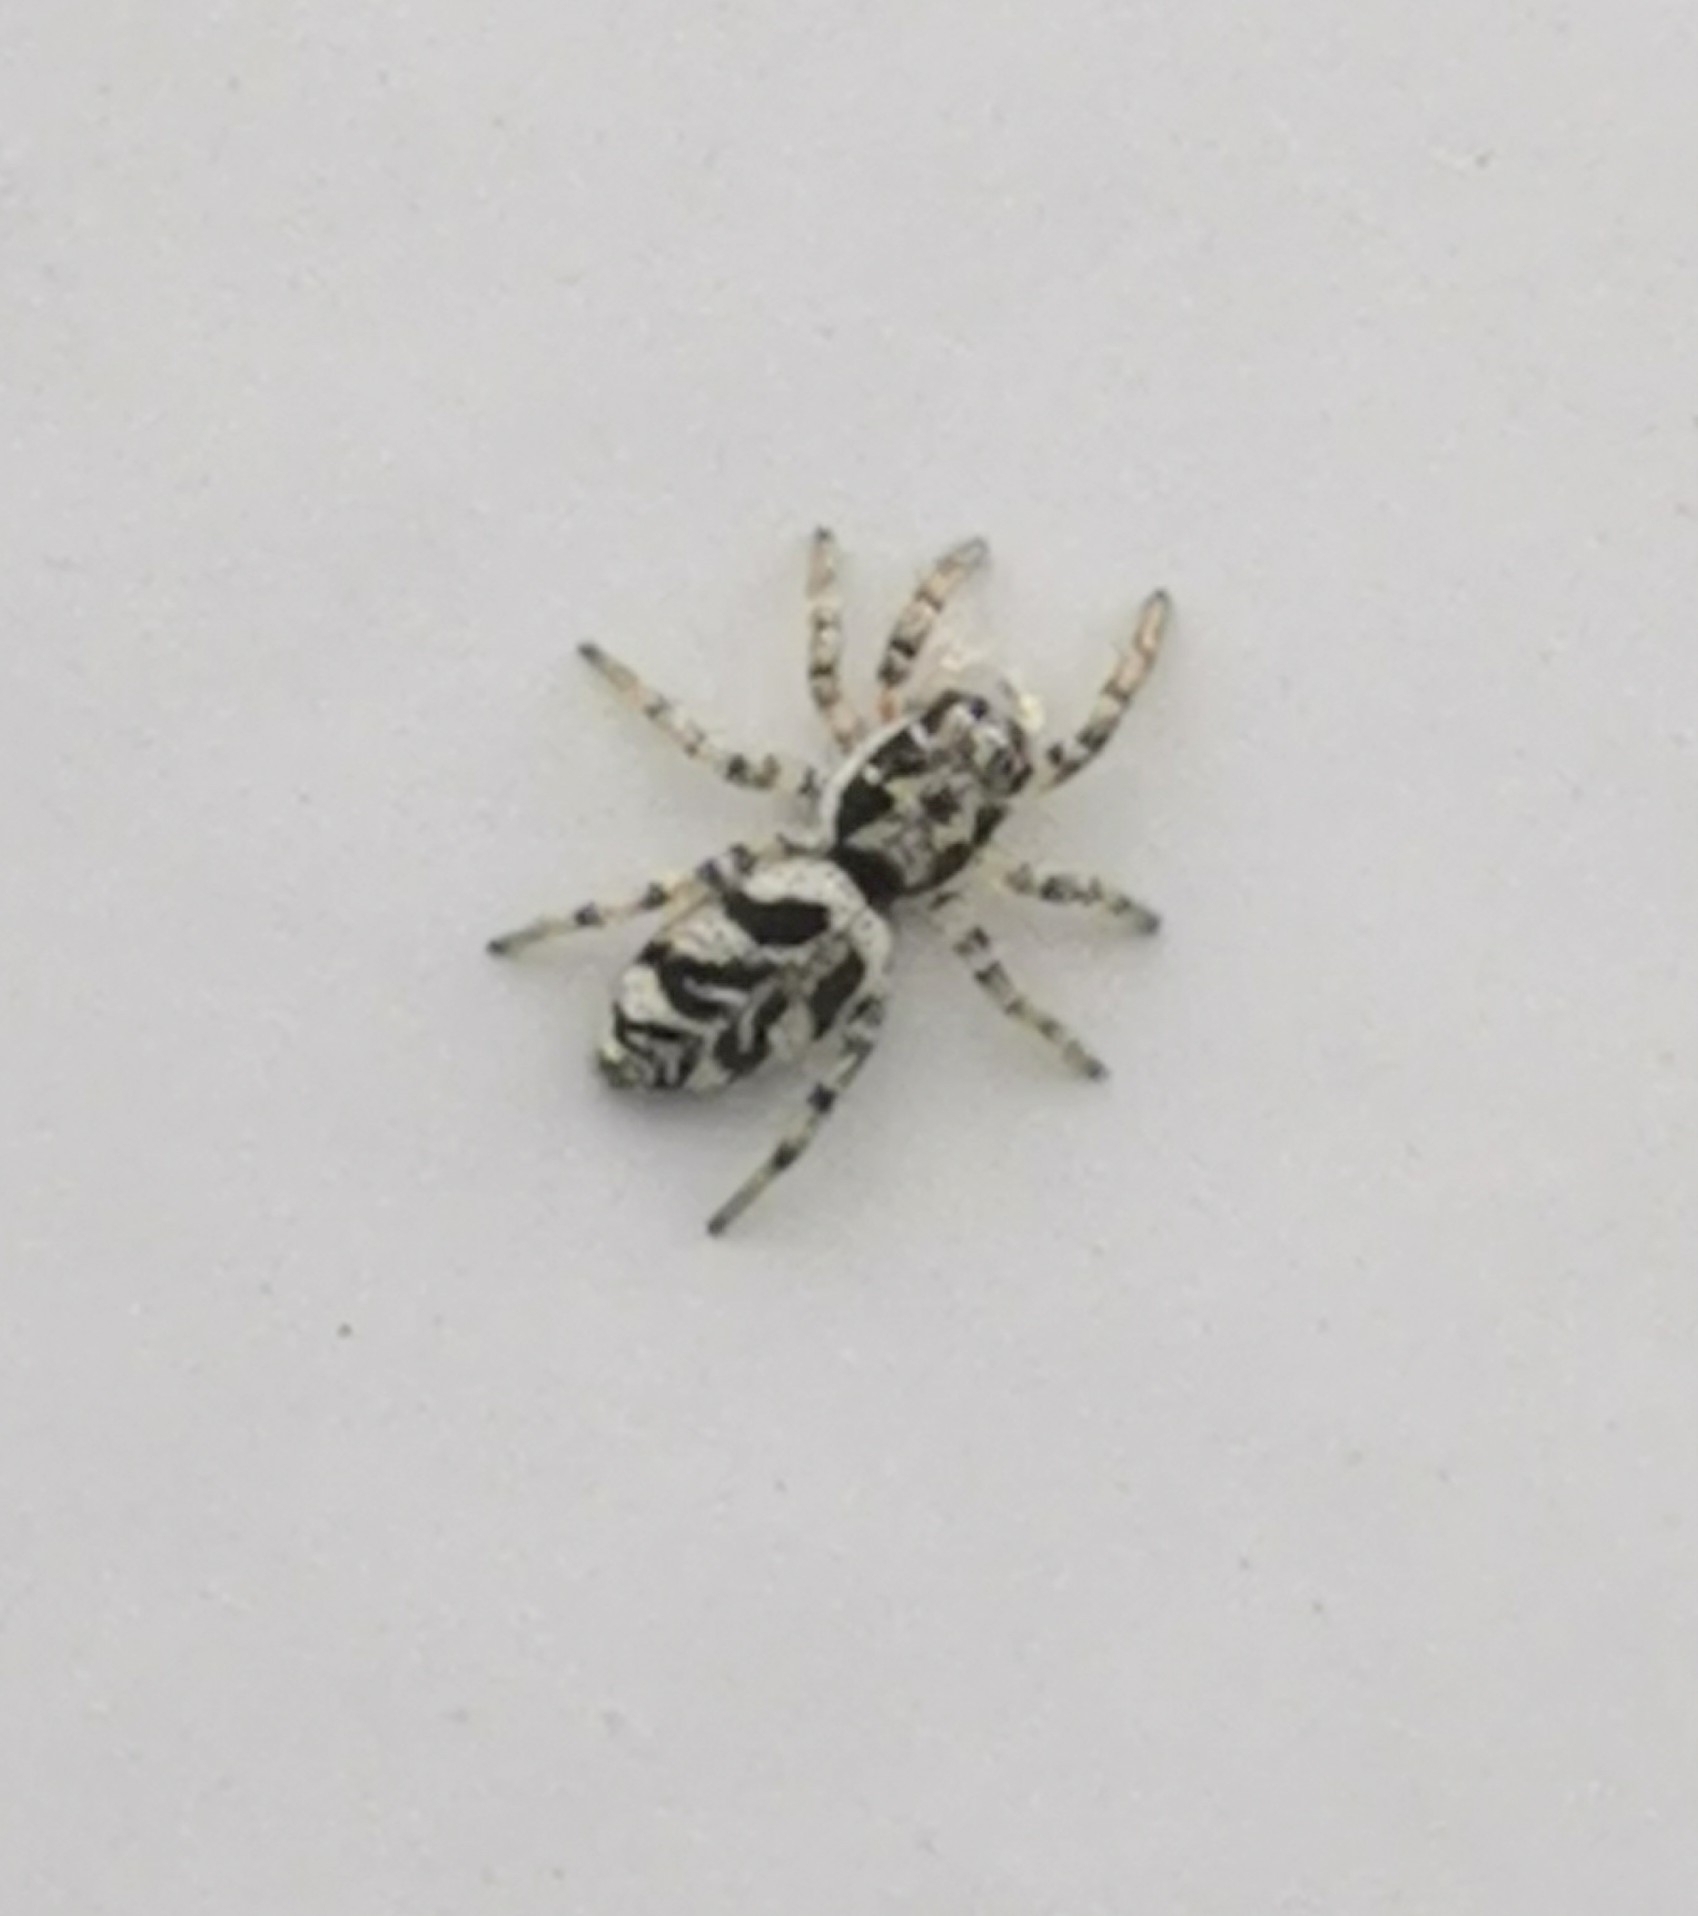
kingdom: Animalia
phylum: Arthropoda
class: Arachnida
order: Araneae
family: Salticidae
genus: Salticus
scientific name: Salticus cingulatus
